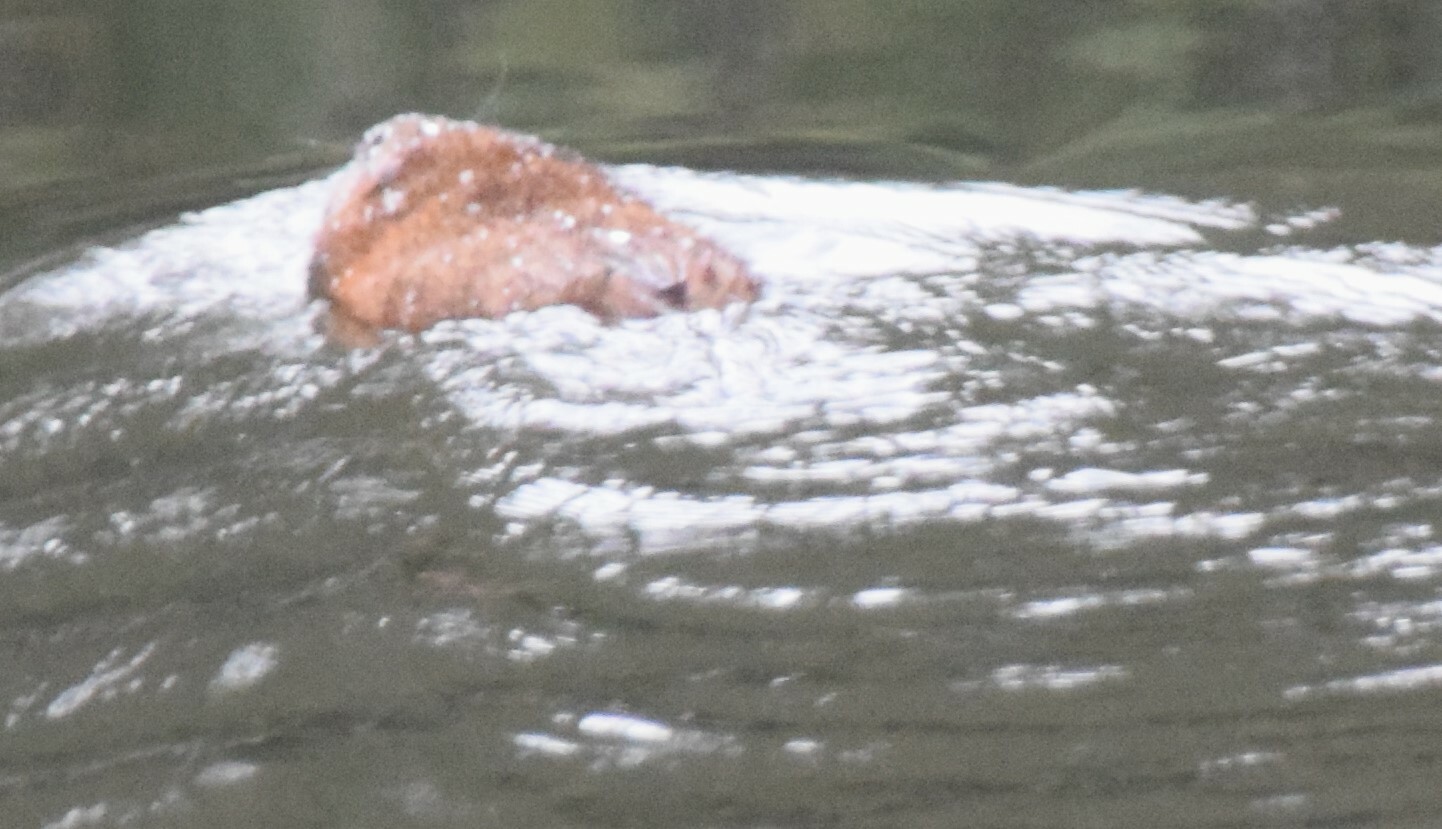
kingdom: Animalia
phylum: Chordata
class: Mammalia
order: Rodentia
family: Cricetidae
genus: Ondatra
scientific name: Ondatra zibethicus
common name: Muskrat
